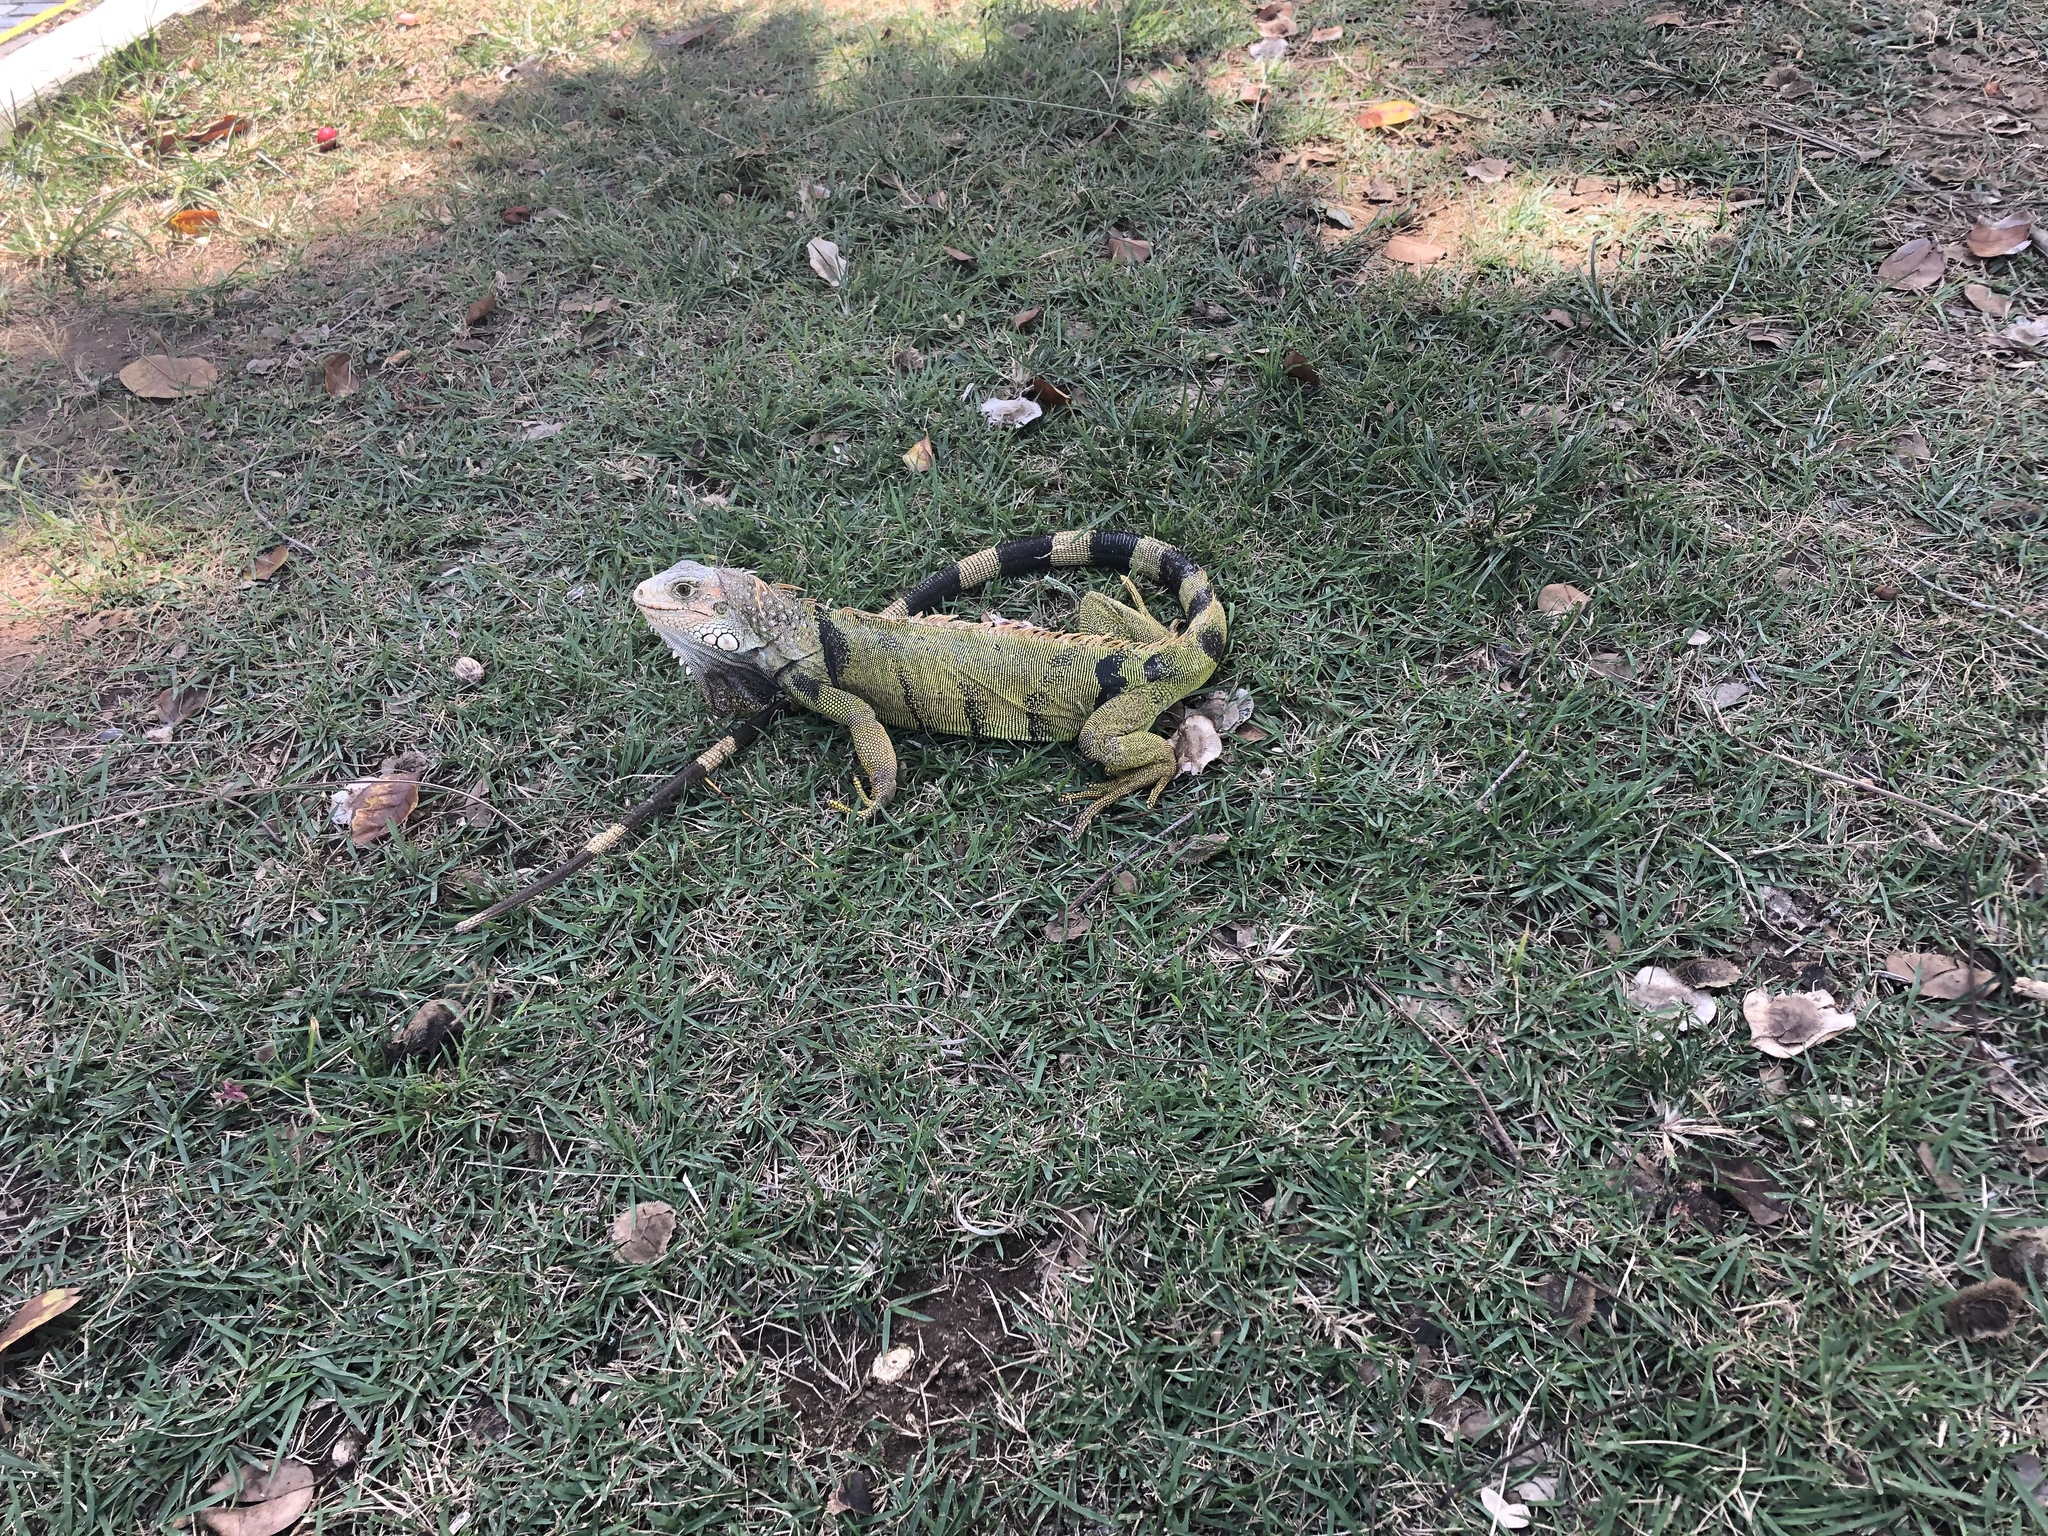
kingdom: Animalia
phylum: Chordata
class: Squamata
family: Iguanidae
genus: Iguana
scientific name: Iguana iguana
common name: Green iguana
